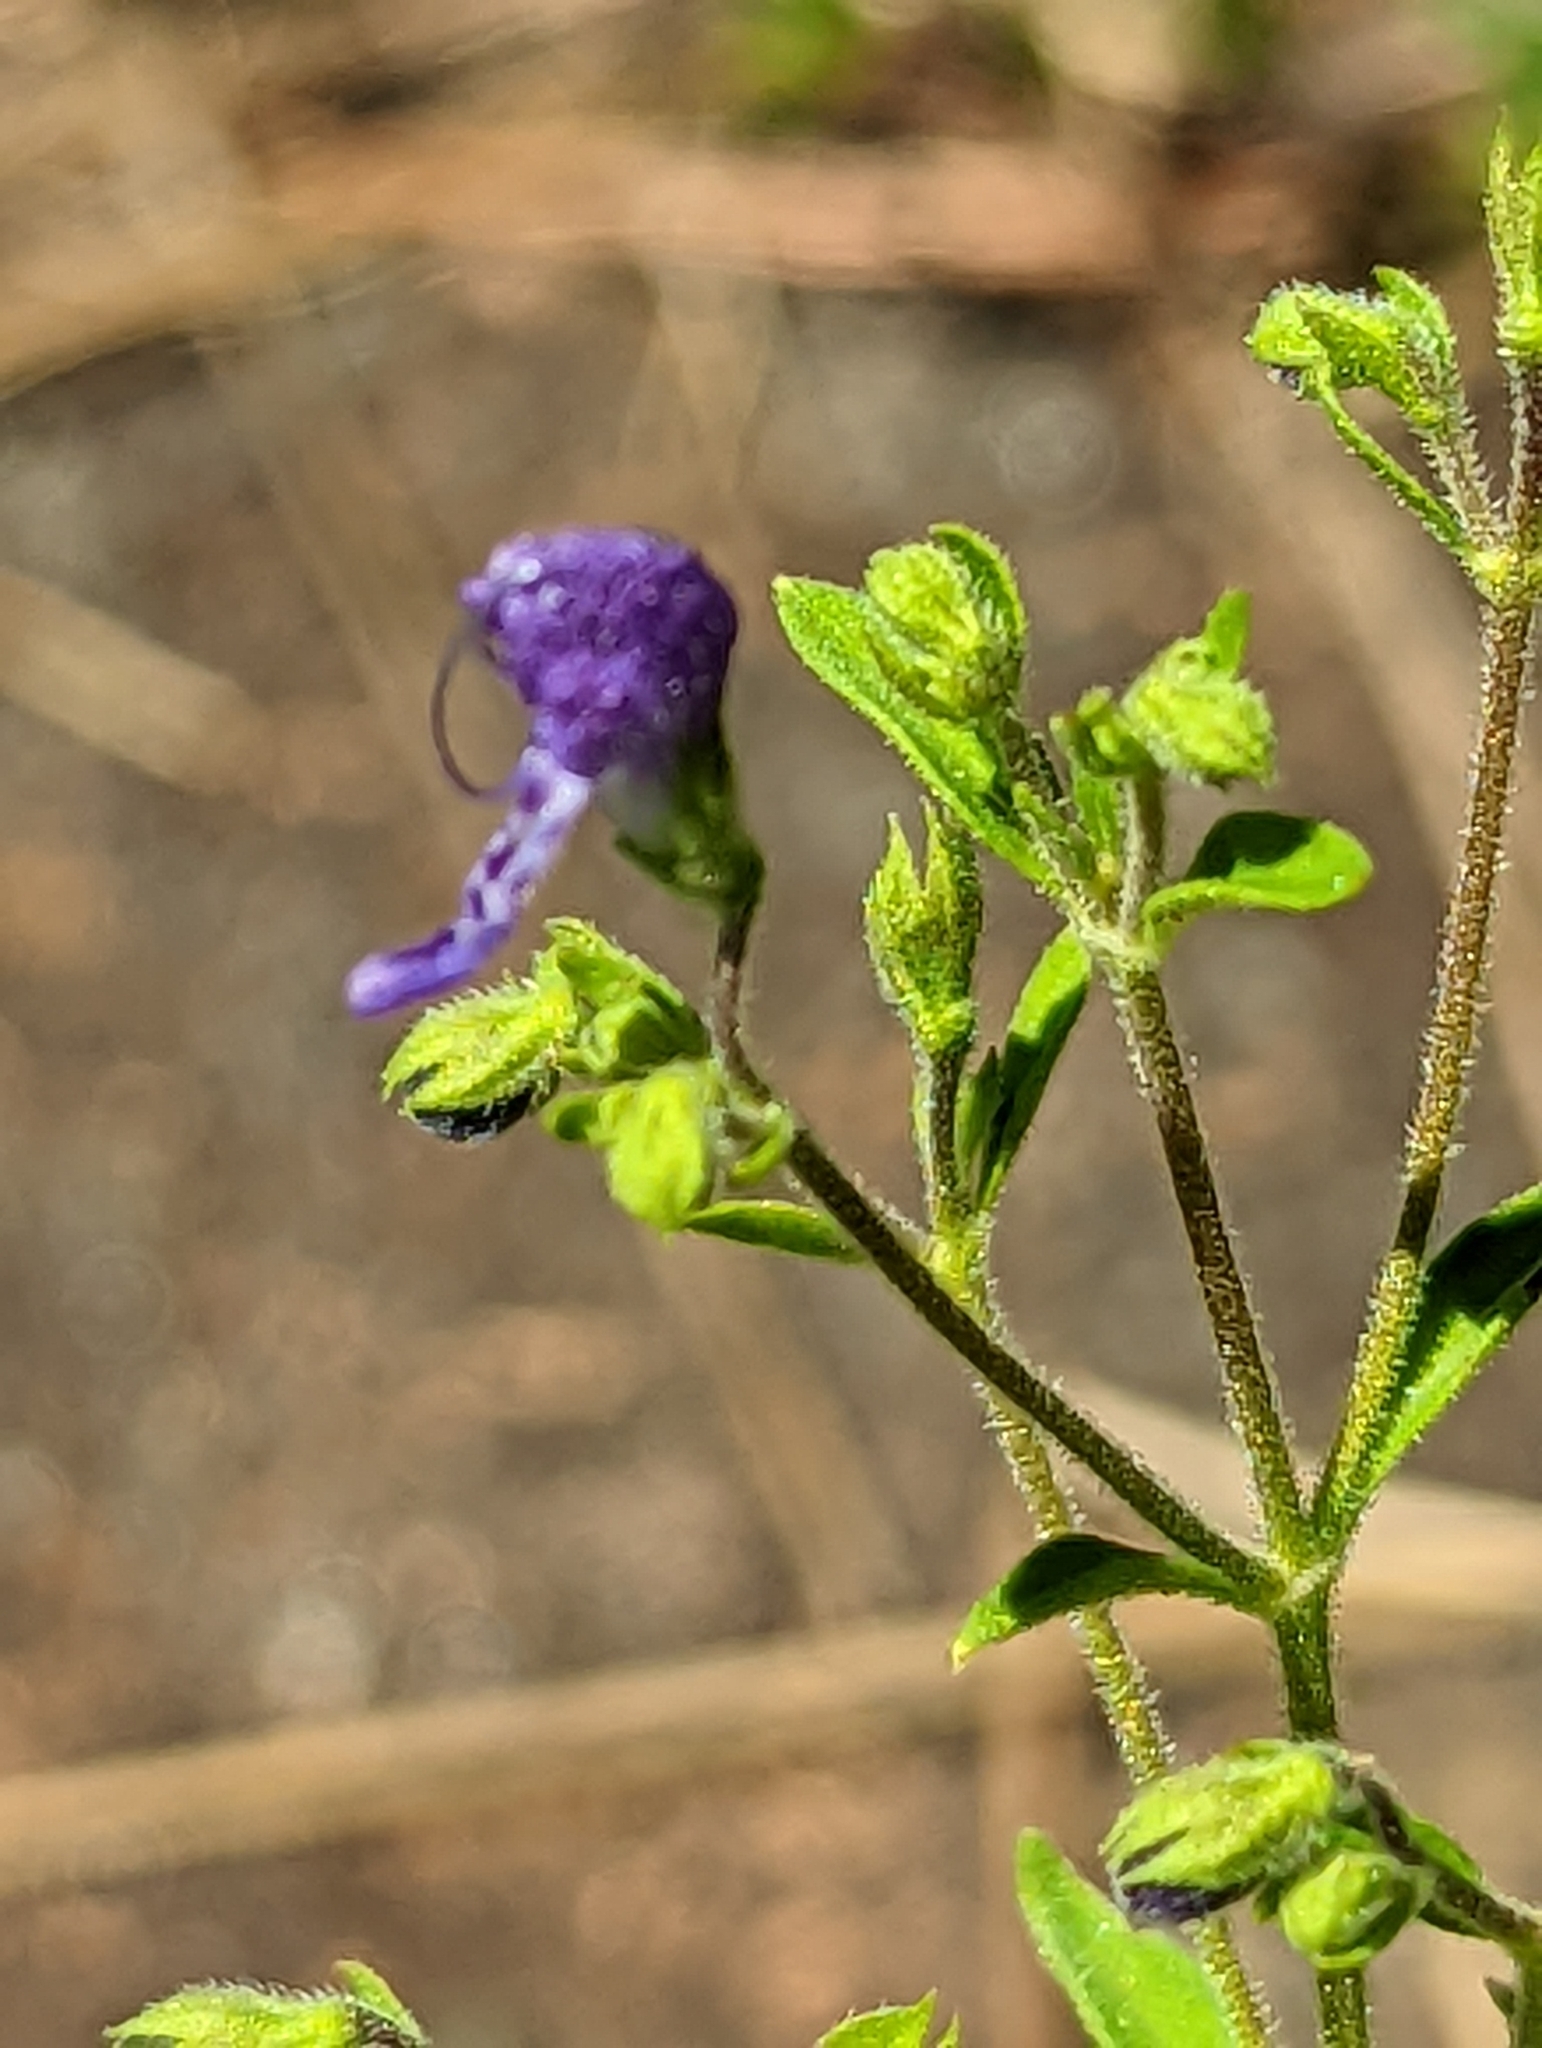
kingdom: Plantae
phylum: Tracheophyta
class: Magnoliopsida
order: Lamiales
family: Lamiaceae
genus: Trichostema
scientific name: Trichostema dichotomum
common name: Bastard pennyroyal
